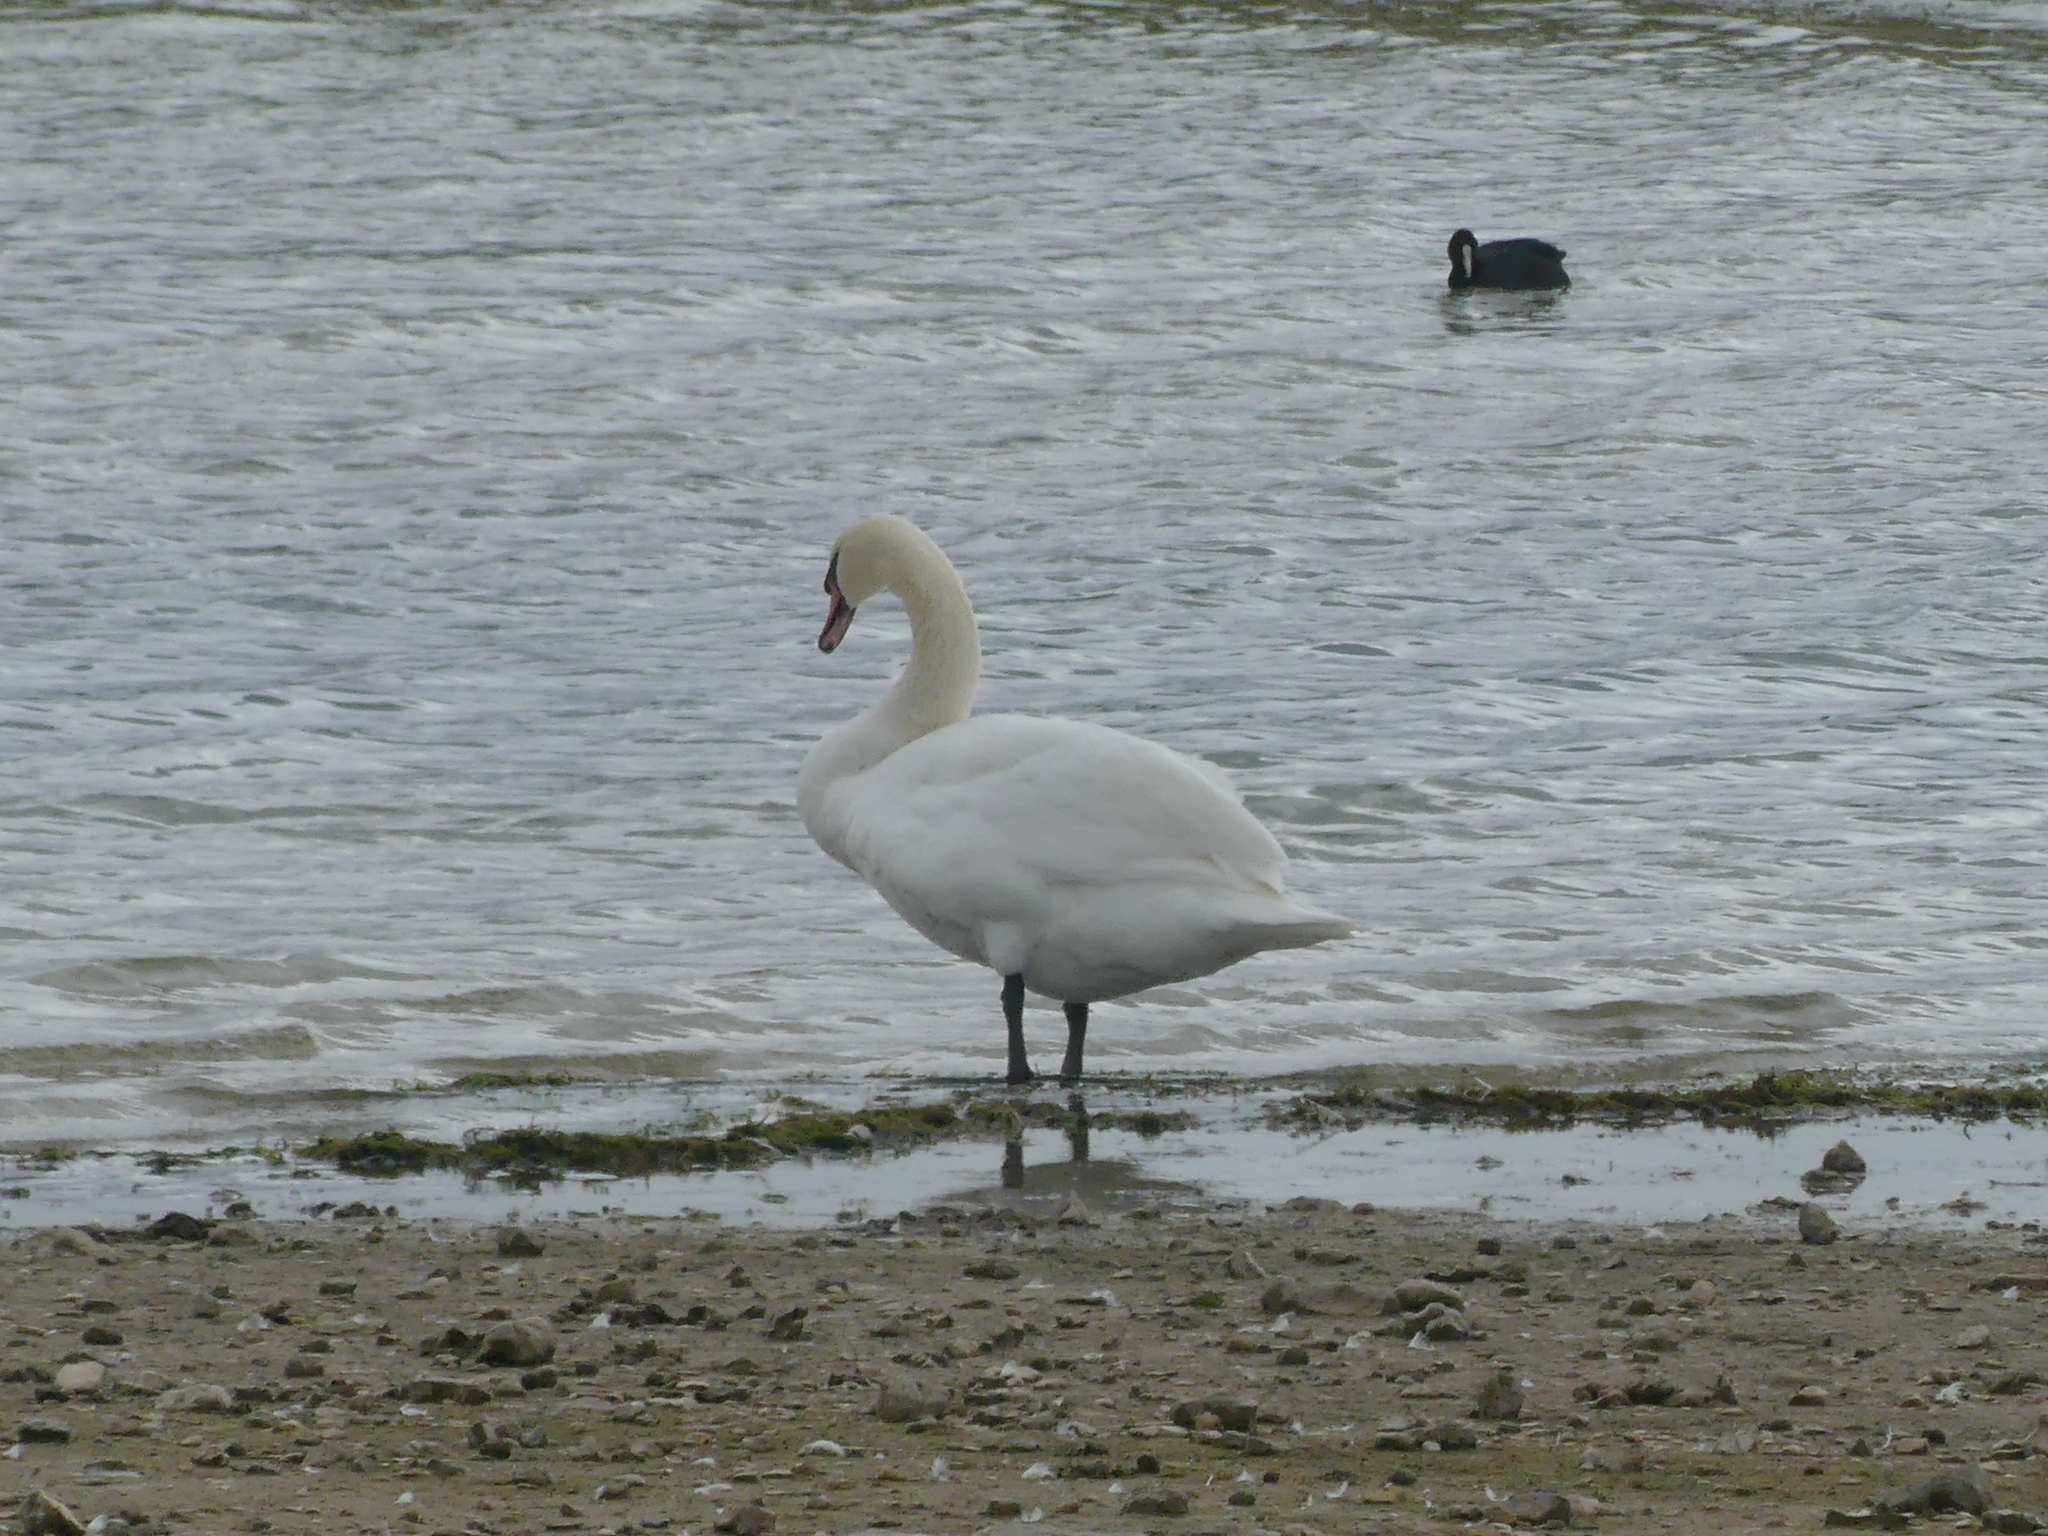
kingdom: Animalia
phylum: Chordata
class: Aves
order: Anseriformes
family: Anatidae
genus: Cygnus
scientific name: Cygnus olor
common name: Mute swan
